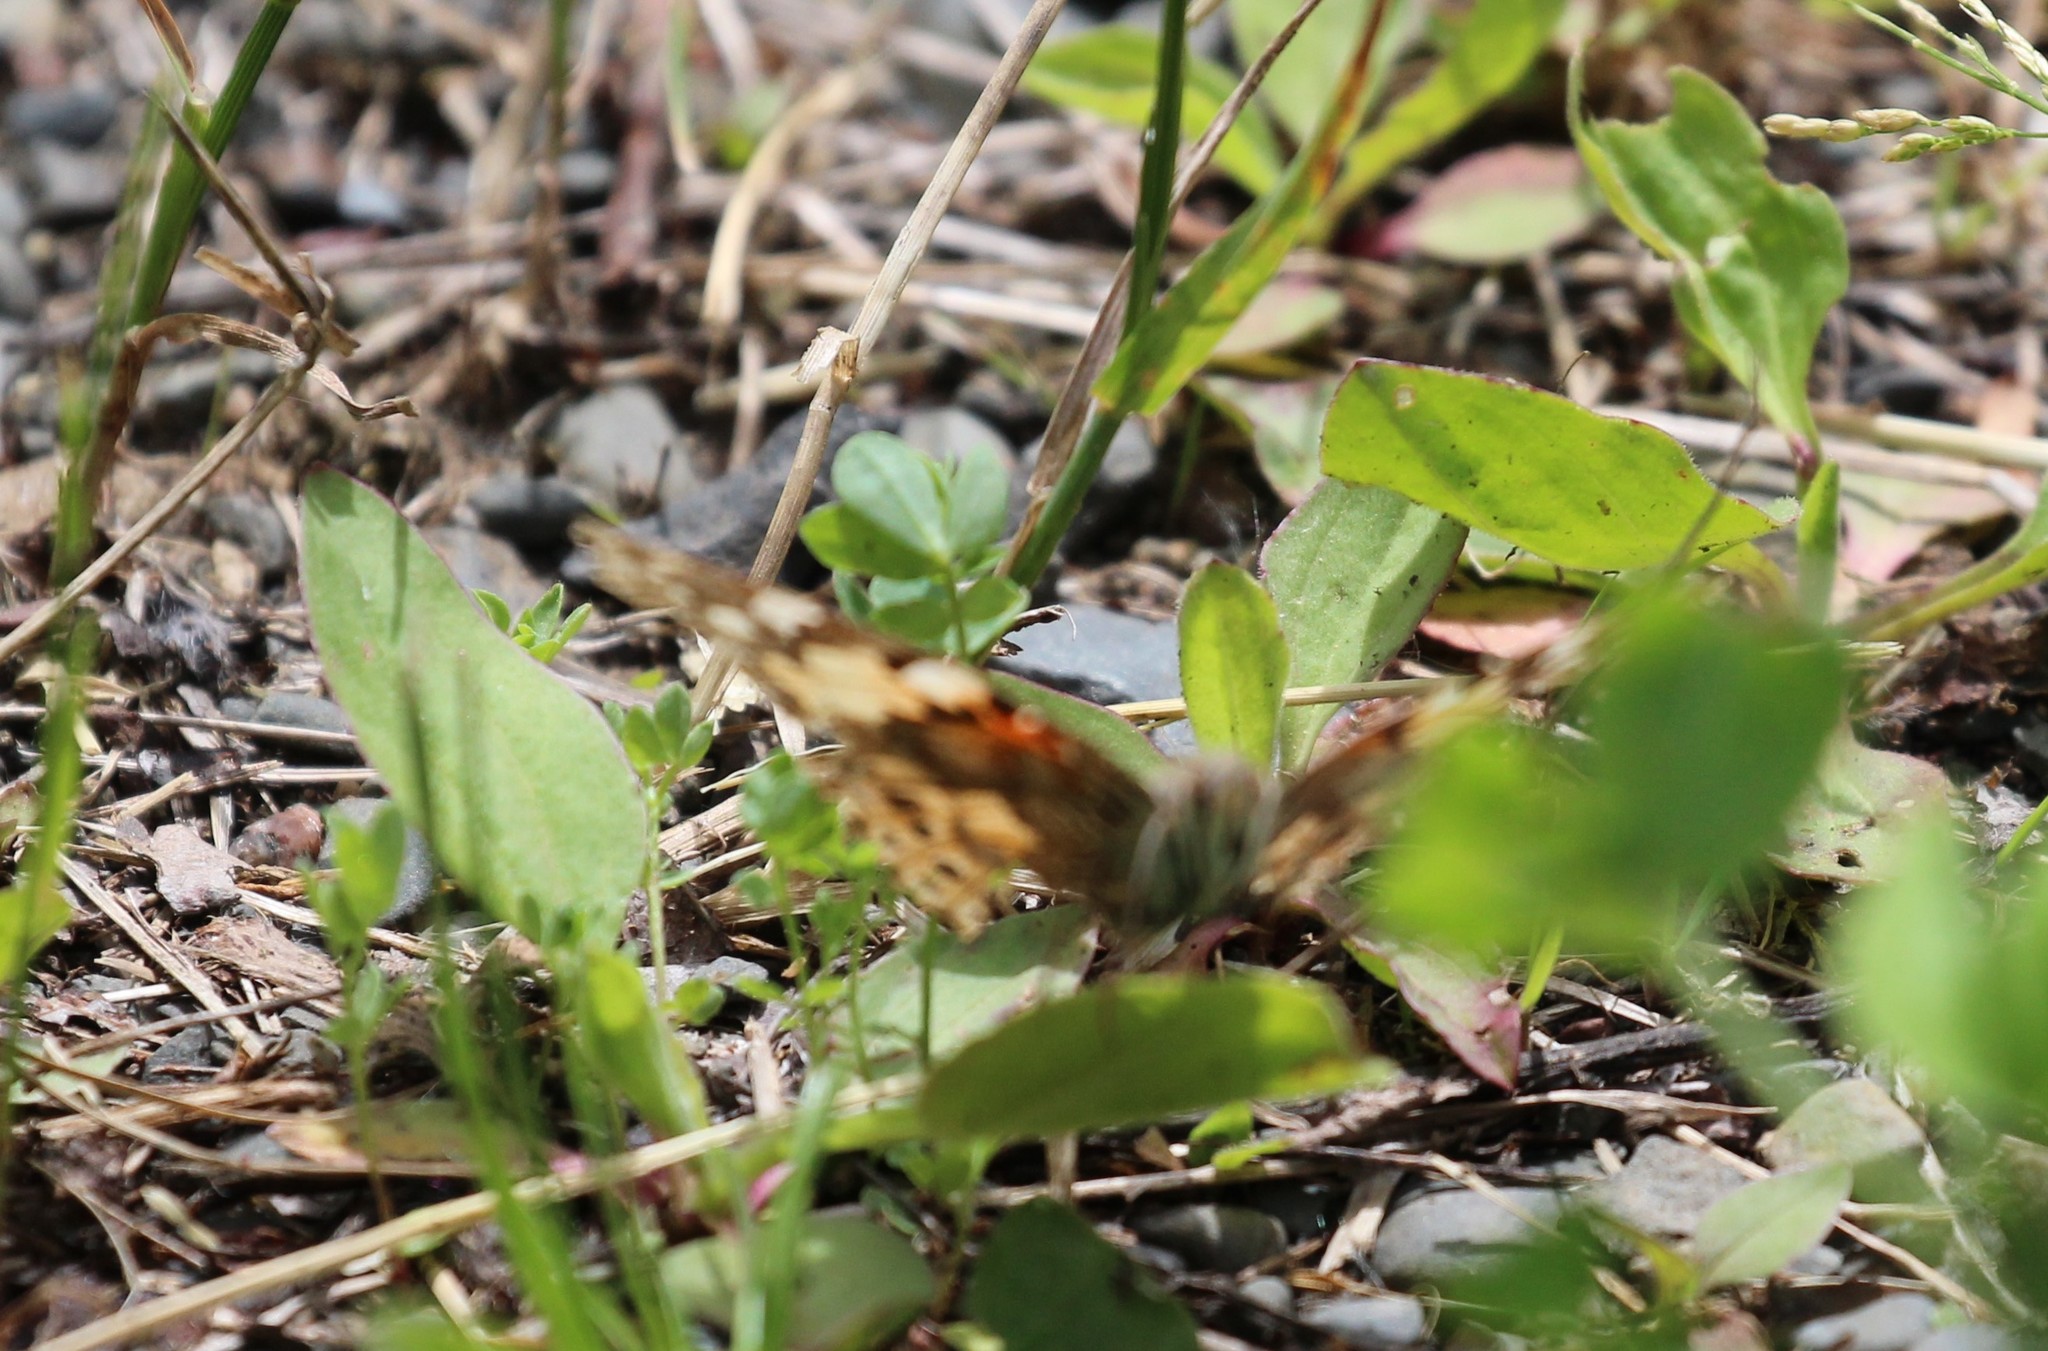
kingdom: Animalia
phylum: Arthropoda
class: Insecta
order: Lepidoptera
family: Nymphalidae
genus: Vanessa
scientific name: Vanessa cardui
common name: Painted lady
